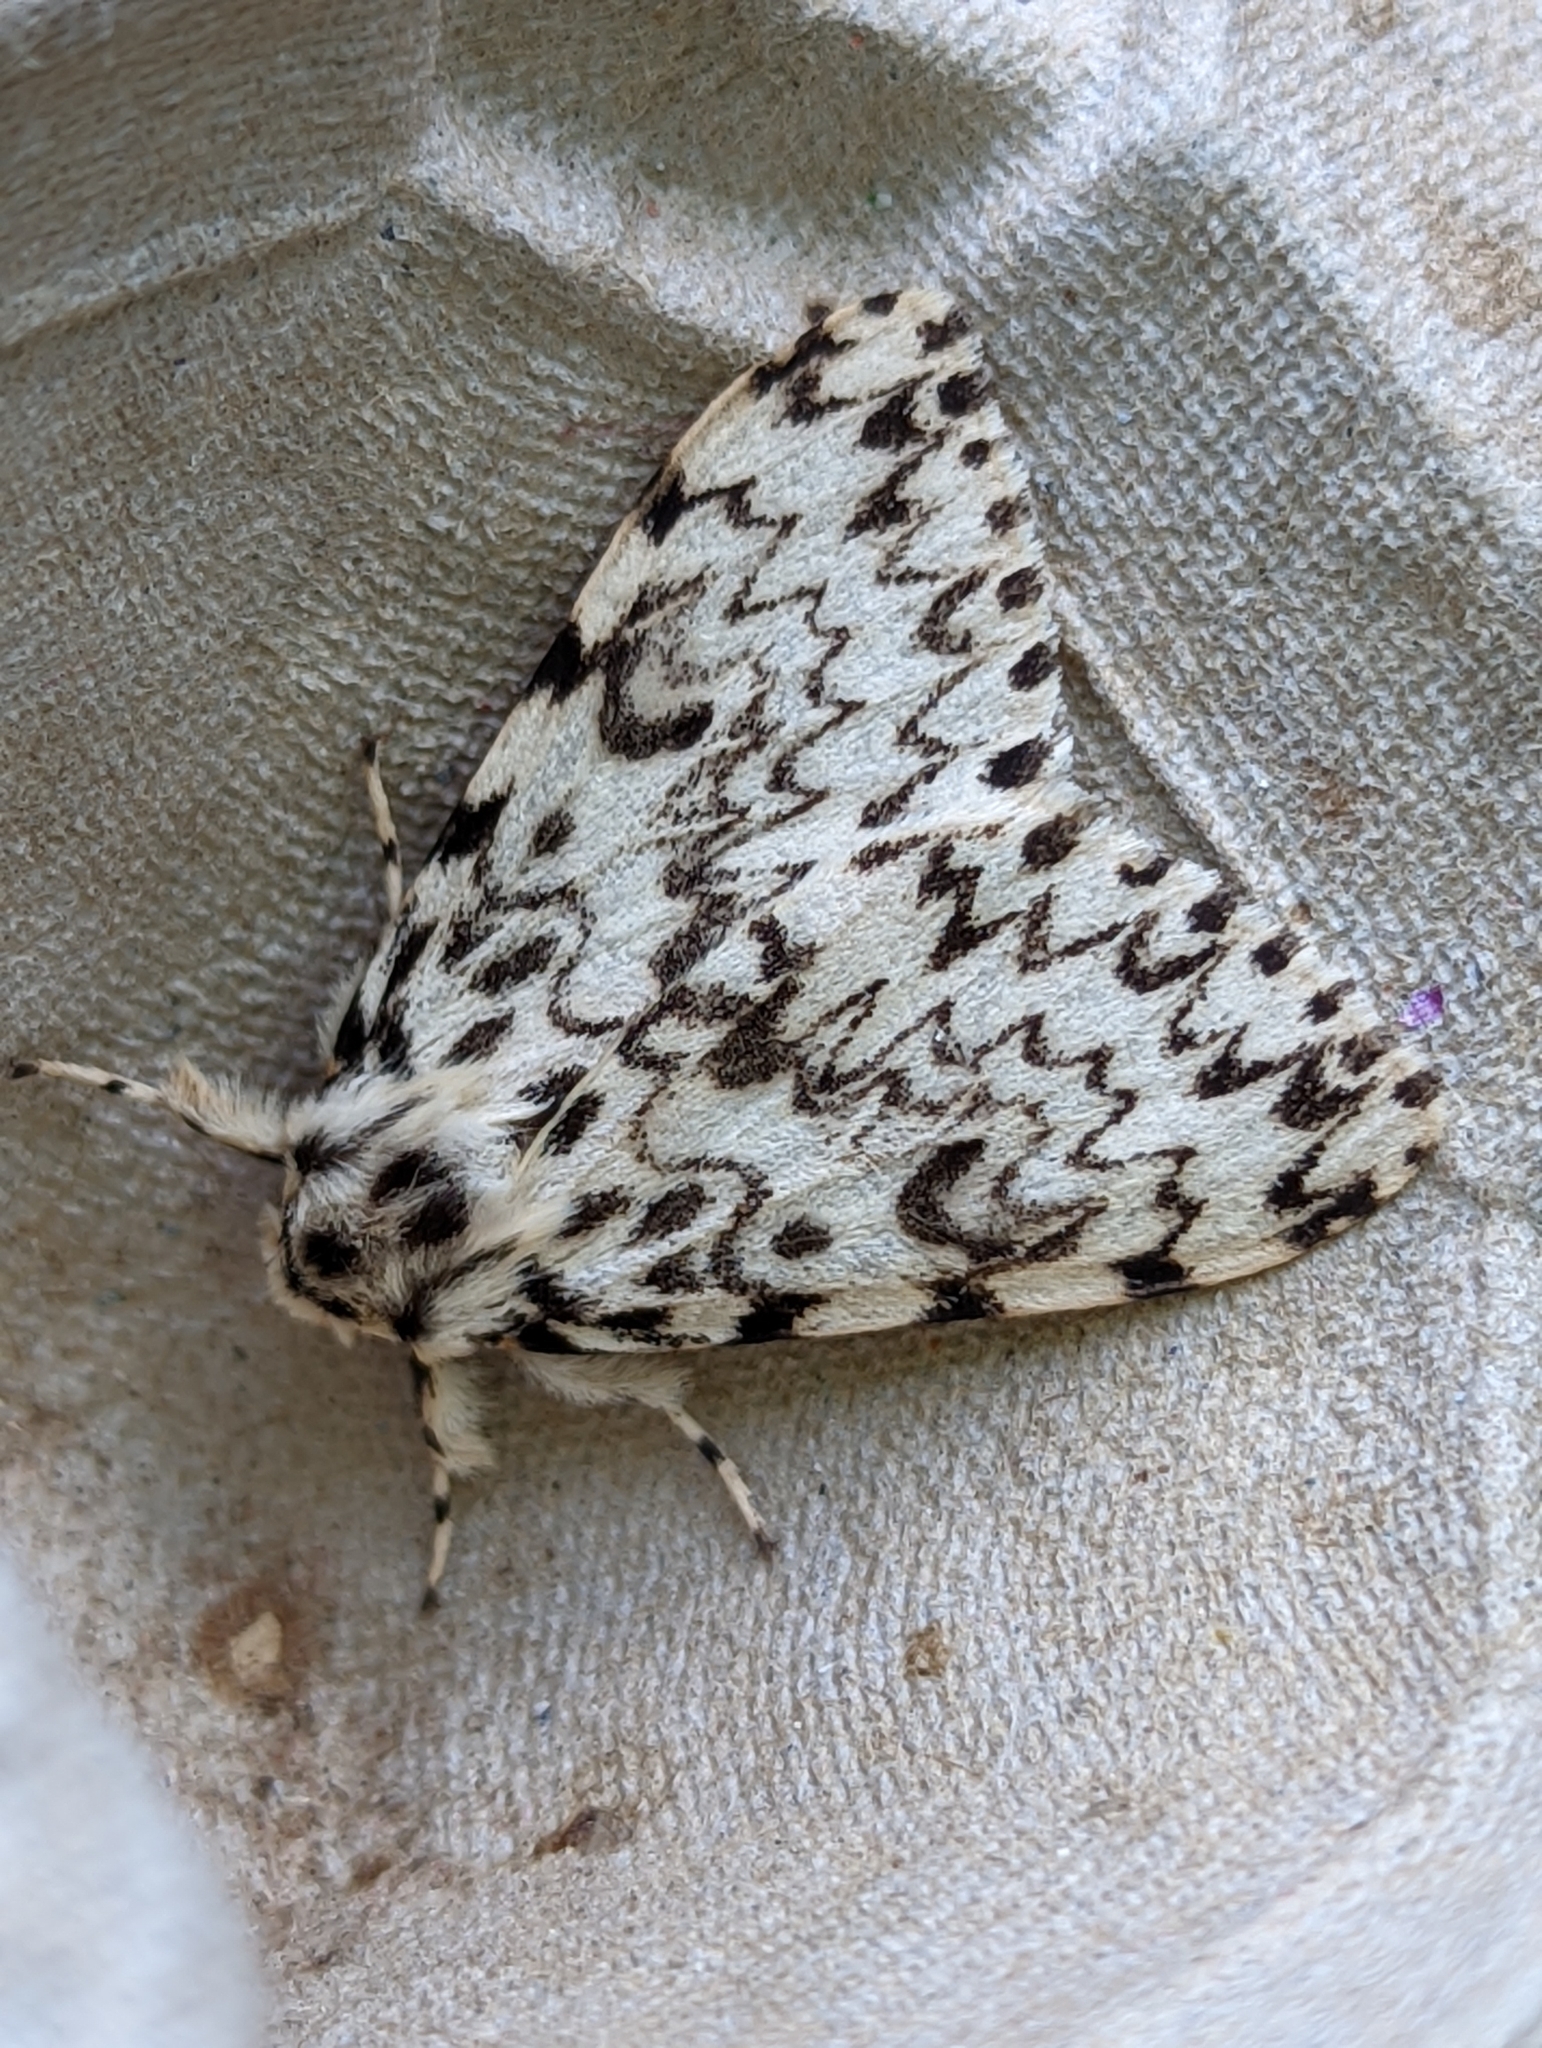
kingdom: Animalia
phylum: Arthropoda
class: Insecta
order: Lepidoptera
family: Erebidae
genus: Lymantria
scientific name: Lymantria monacha
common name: Black arches
